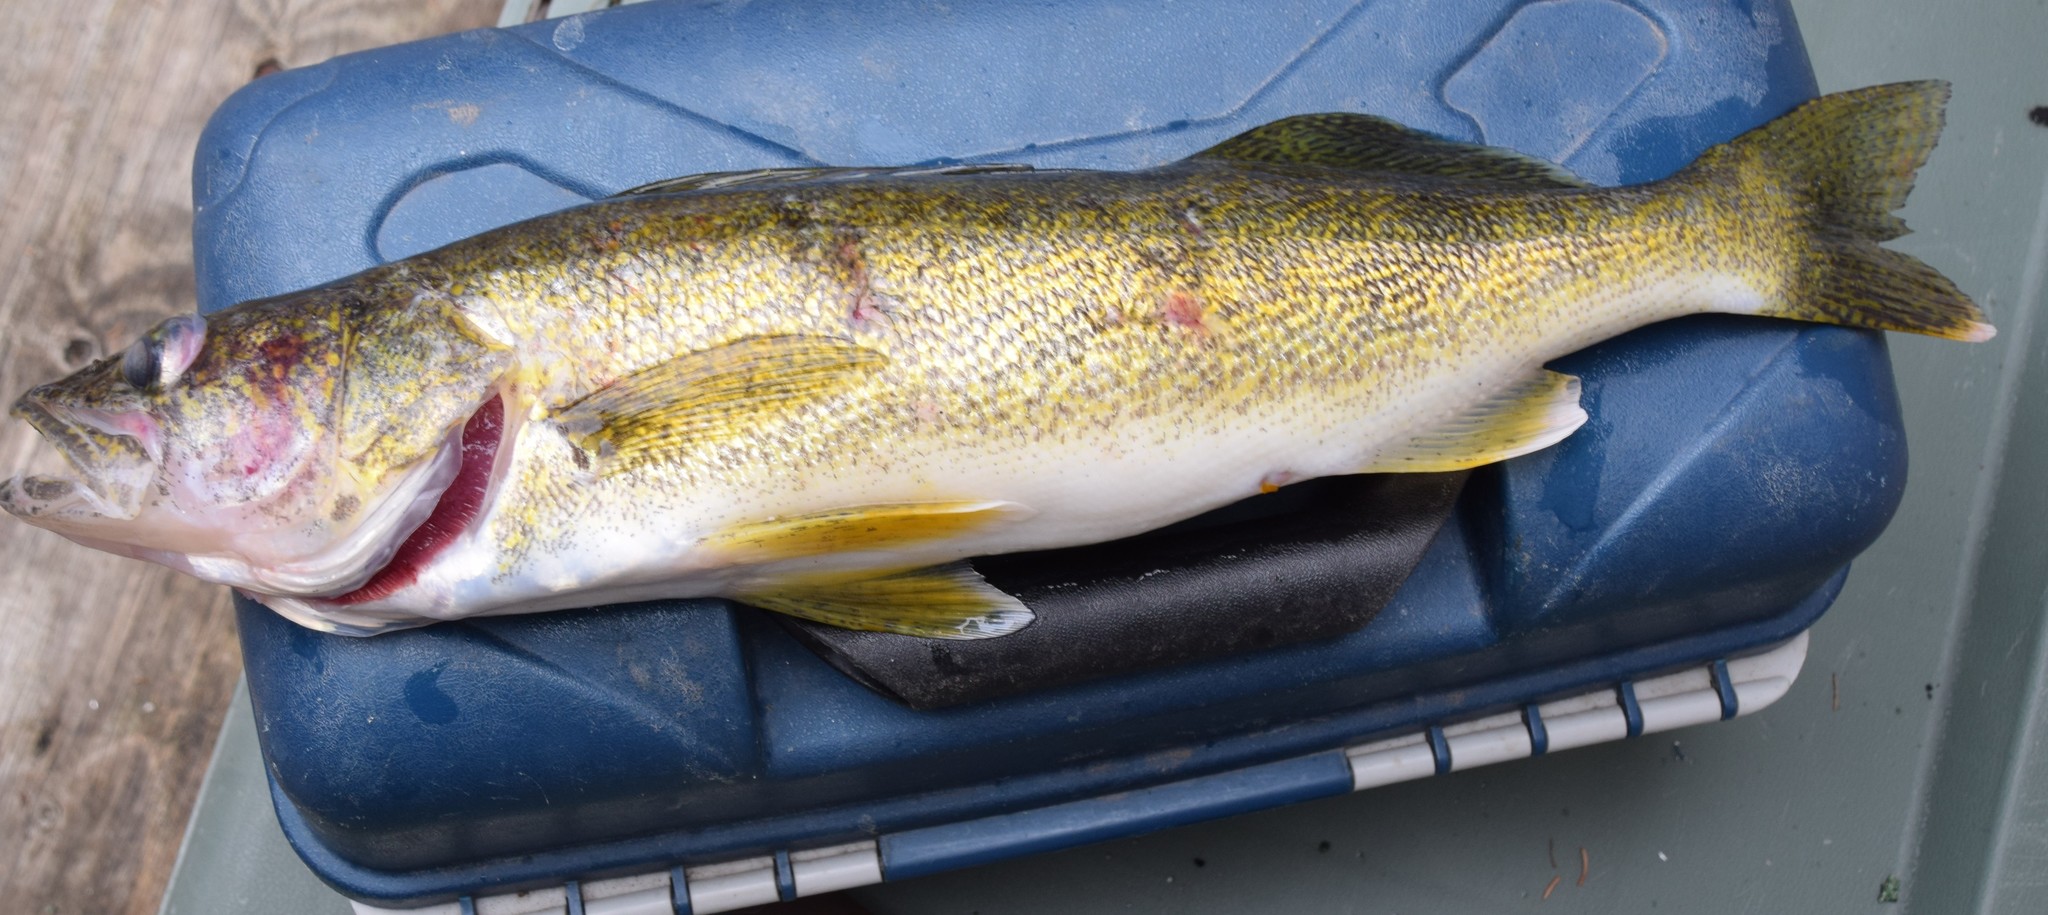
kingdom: Animalia
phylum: Chordata
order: Perciformes
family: Percidae
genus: Sander
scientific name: Sander vitreus
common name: Walleye
